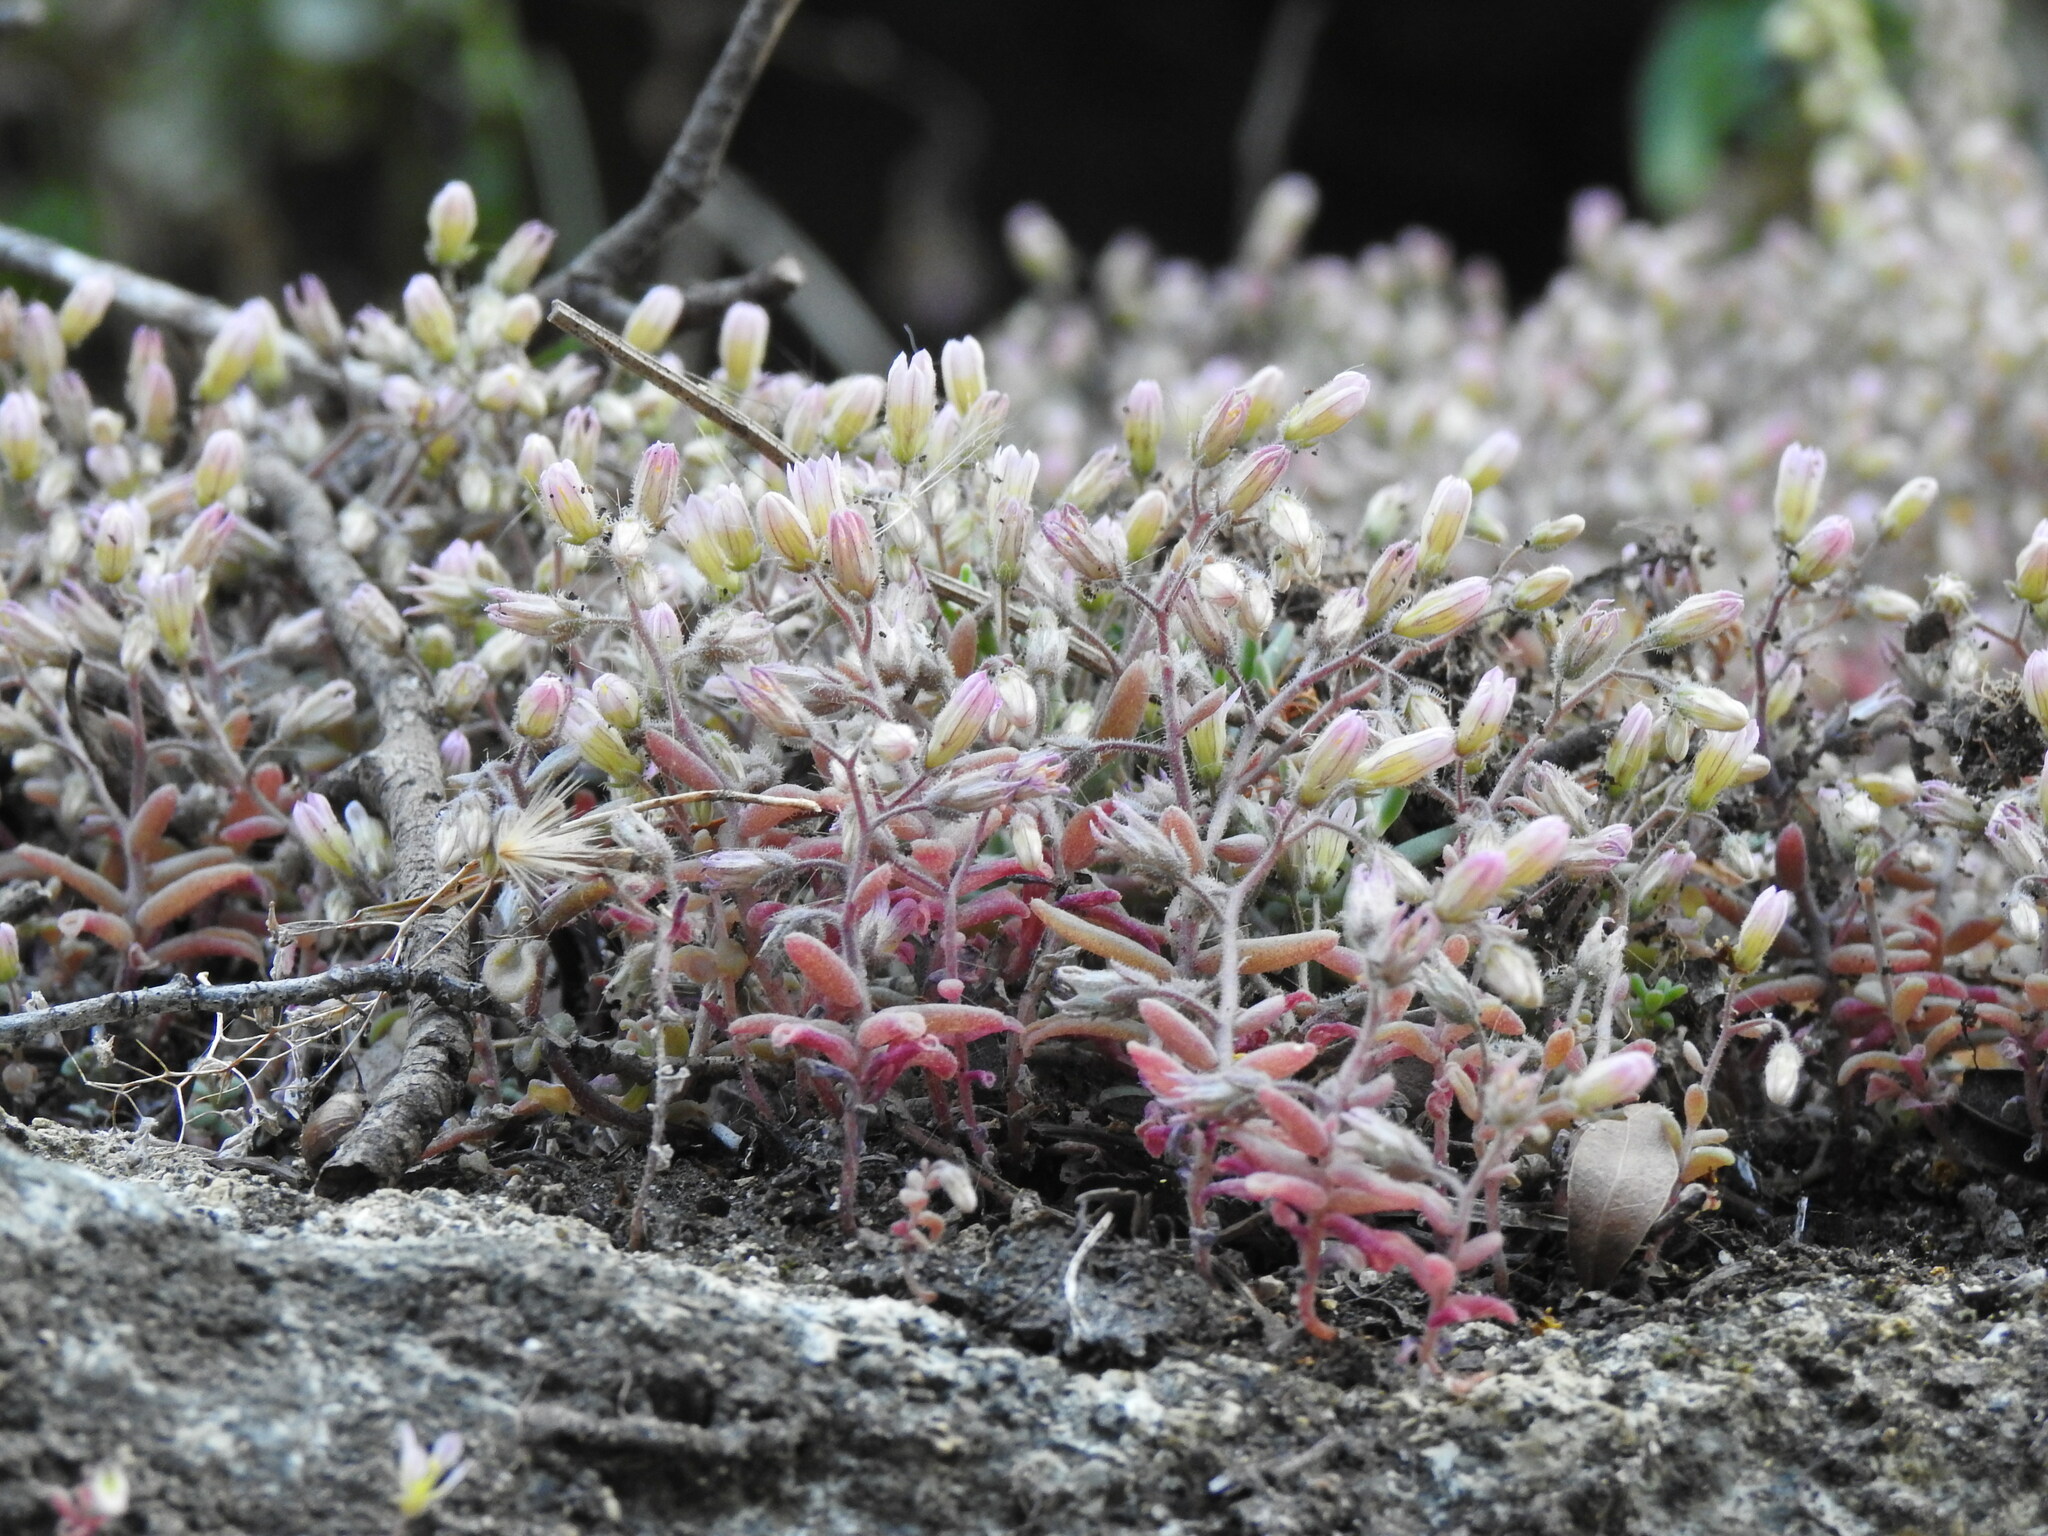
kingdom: Plantae
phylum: Tracheophyta
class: Magnoliopsida
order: Saxifragales
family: Crassulaceae
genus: Sedum
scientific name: Sedum mucizonia
